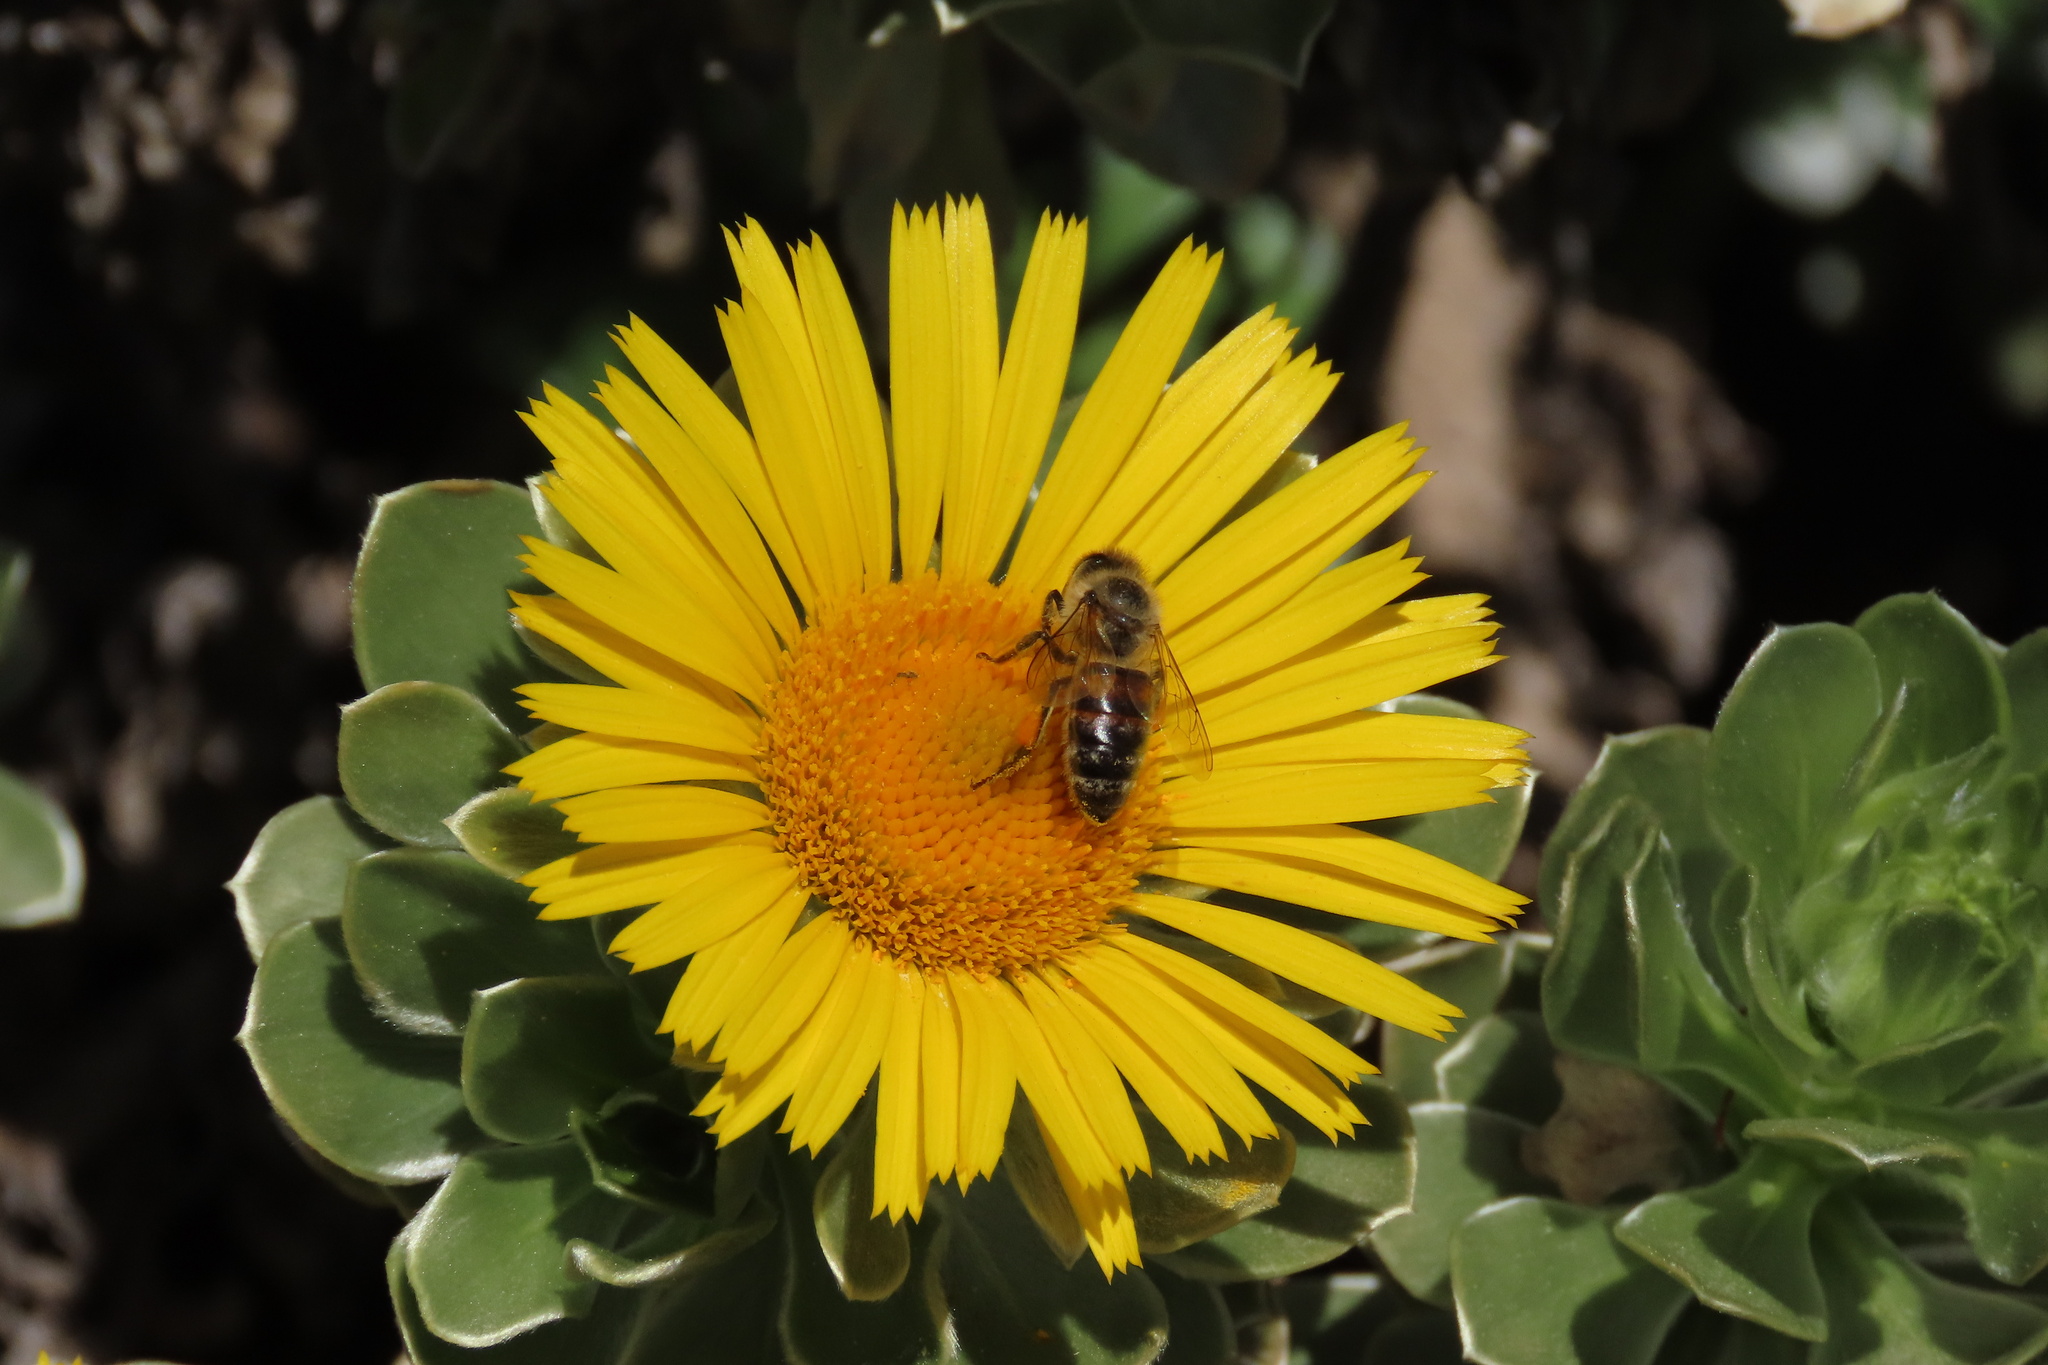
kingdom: Animalia
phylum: Arthropoda
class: Insecta
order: Hymenoptera
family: Apidae
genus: Apis
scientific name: Apis mellifera
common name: Honey bee
